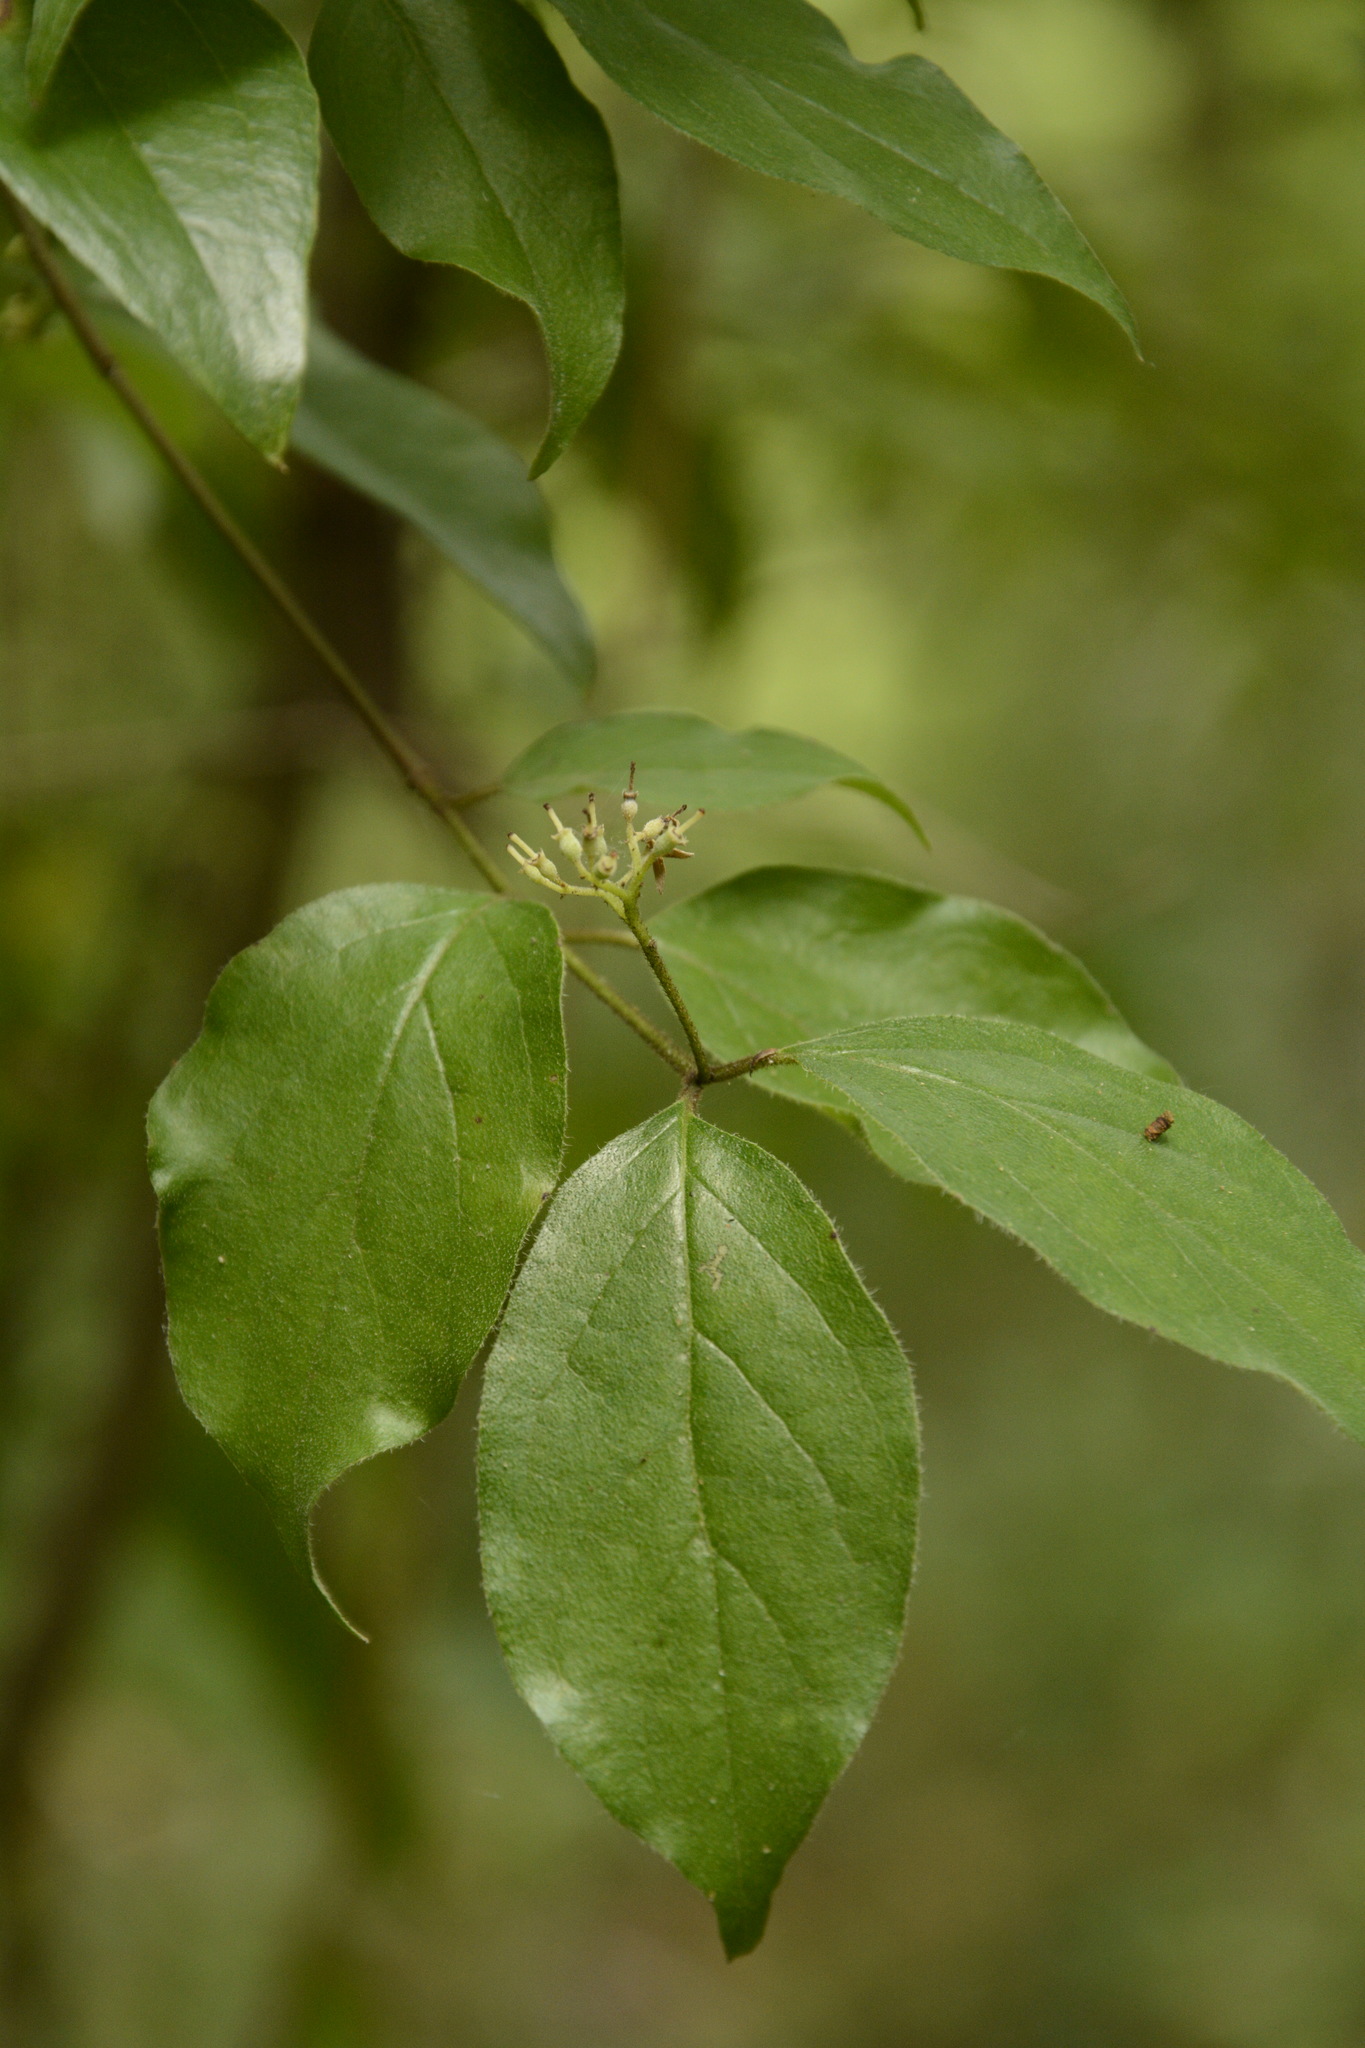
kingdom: Plantae
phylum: Tracheophyta
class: Magnoliopsida
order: Cornales
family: Cornaceae
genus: Cornus
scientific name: Cornus asperifolia
